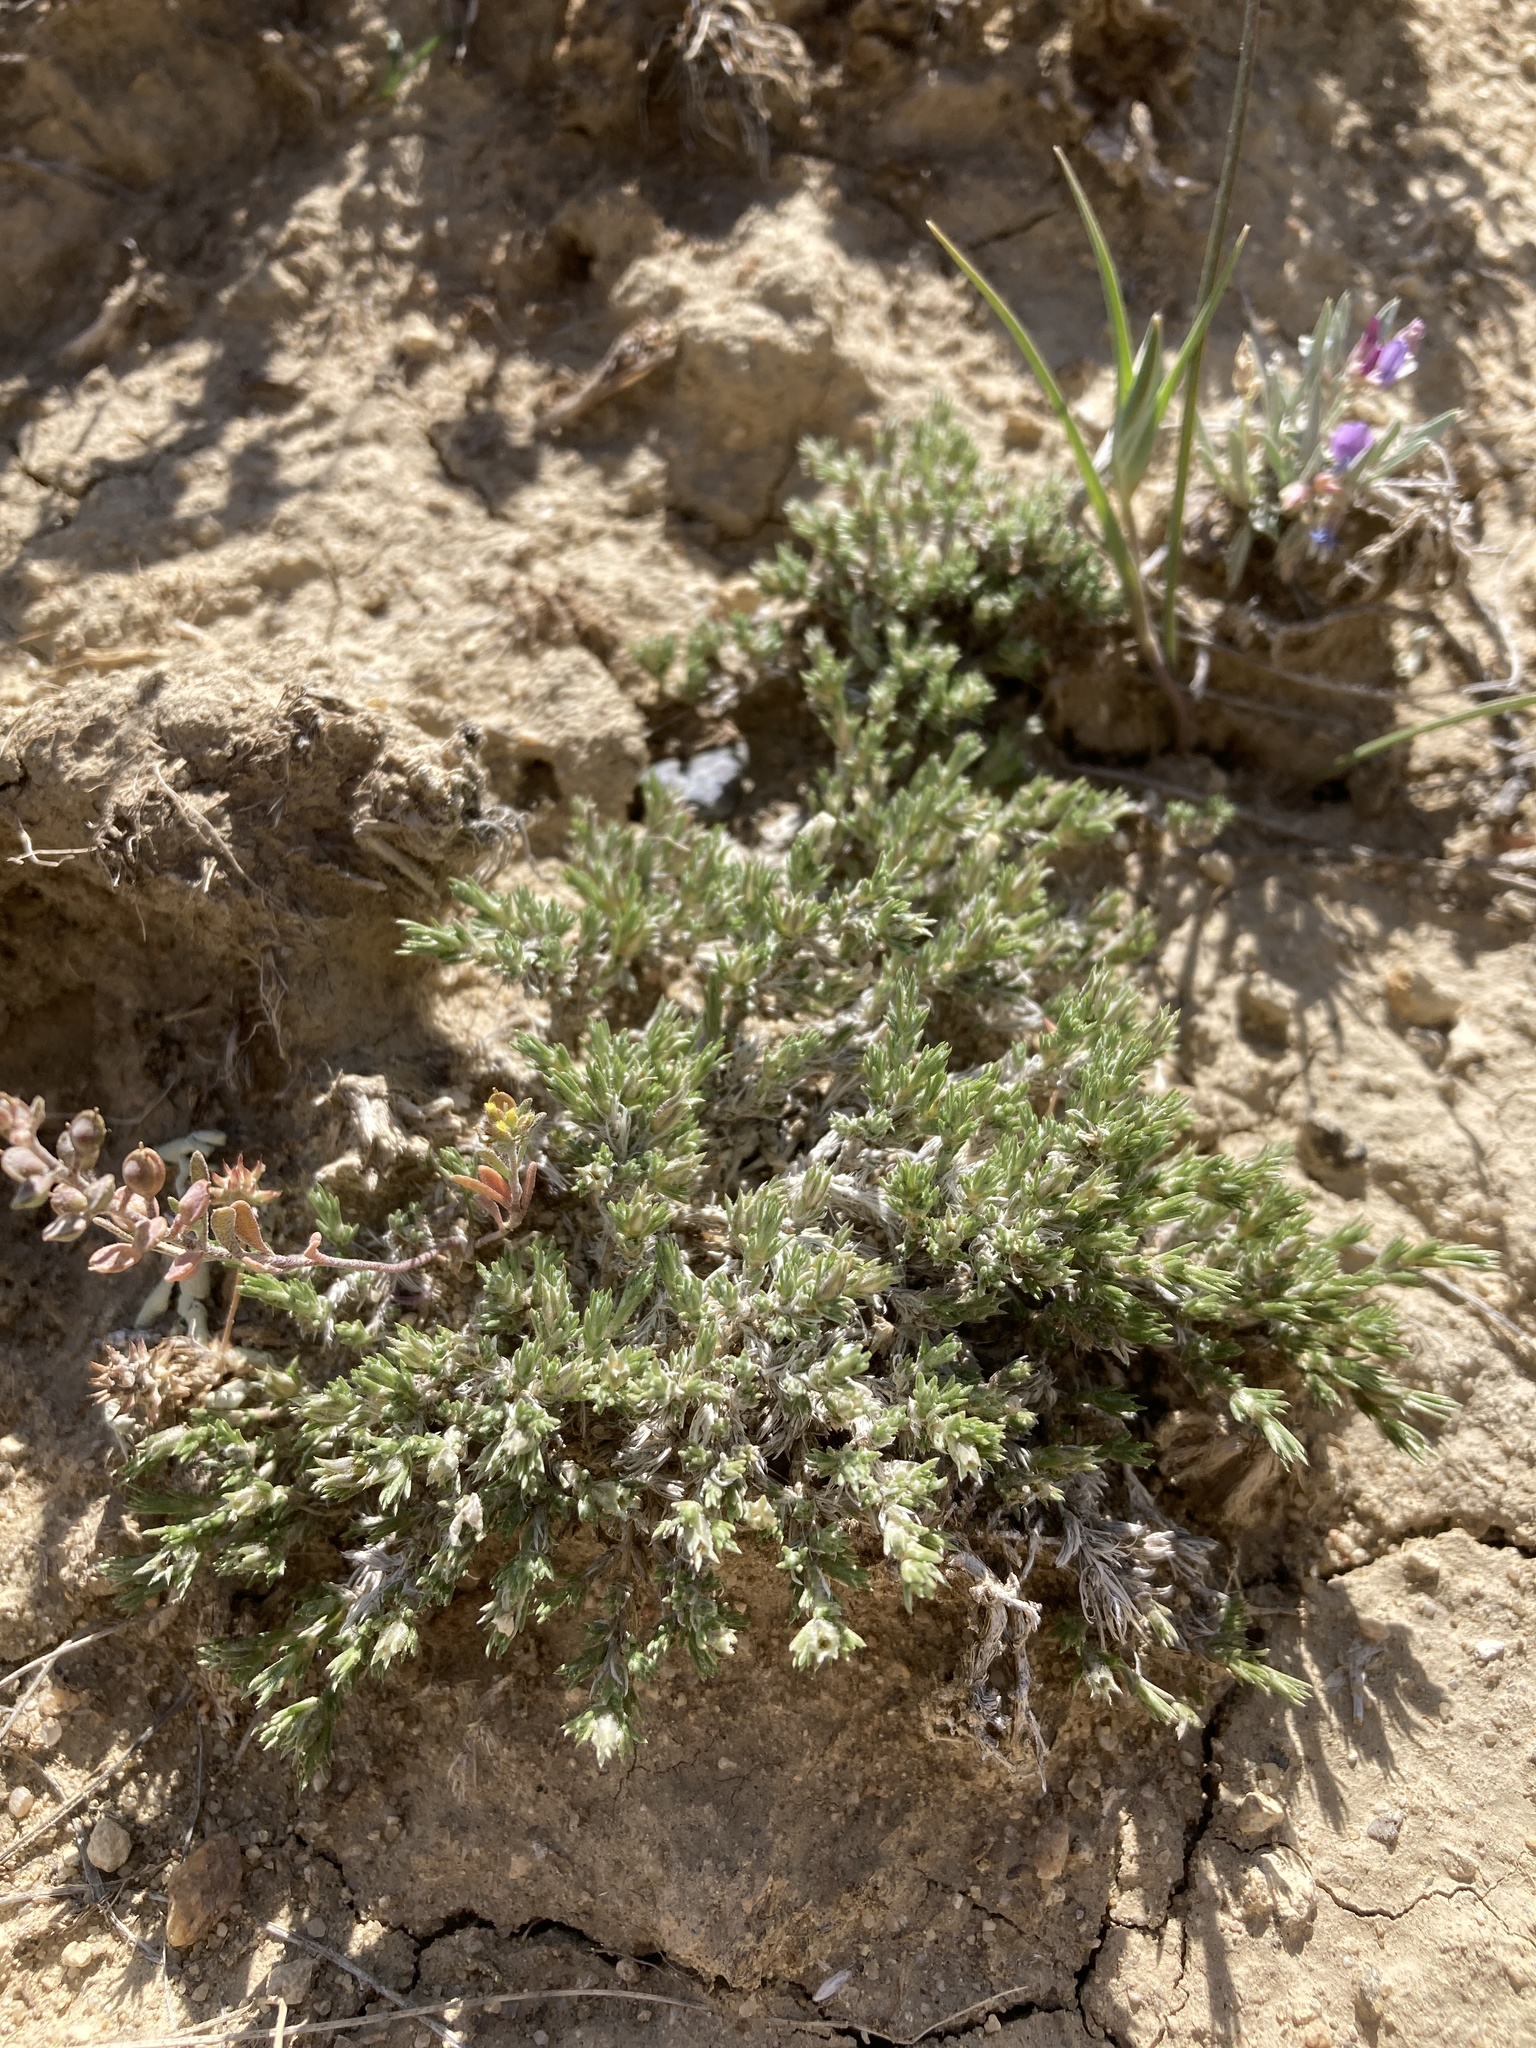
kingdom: Plantae
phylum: Tracheophyta
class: Magnoliopsida
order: Ericales
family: Polemoniaceae
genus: Phlox
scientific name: Phlox hoodii
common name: Moss phlox
